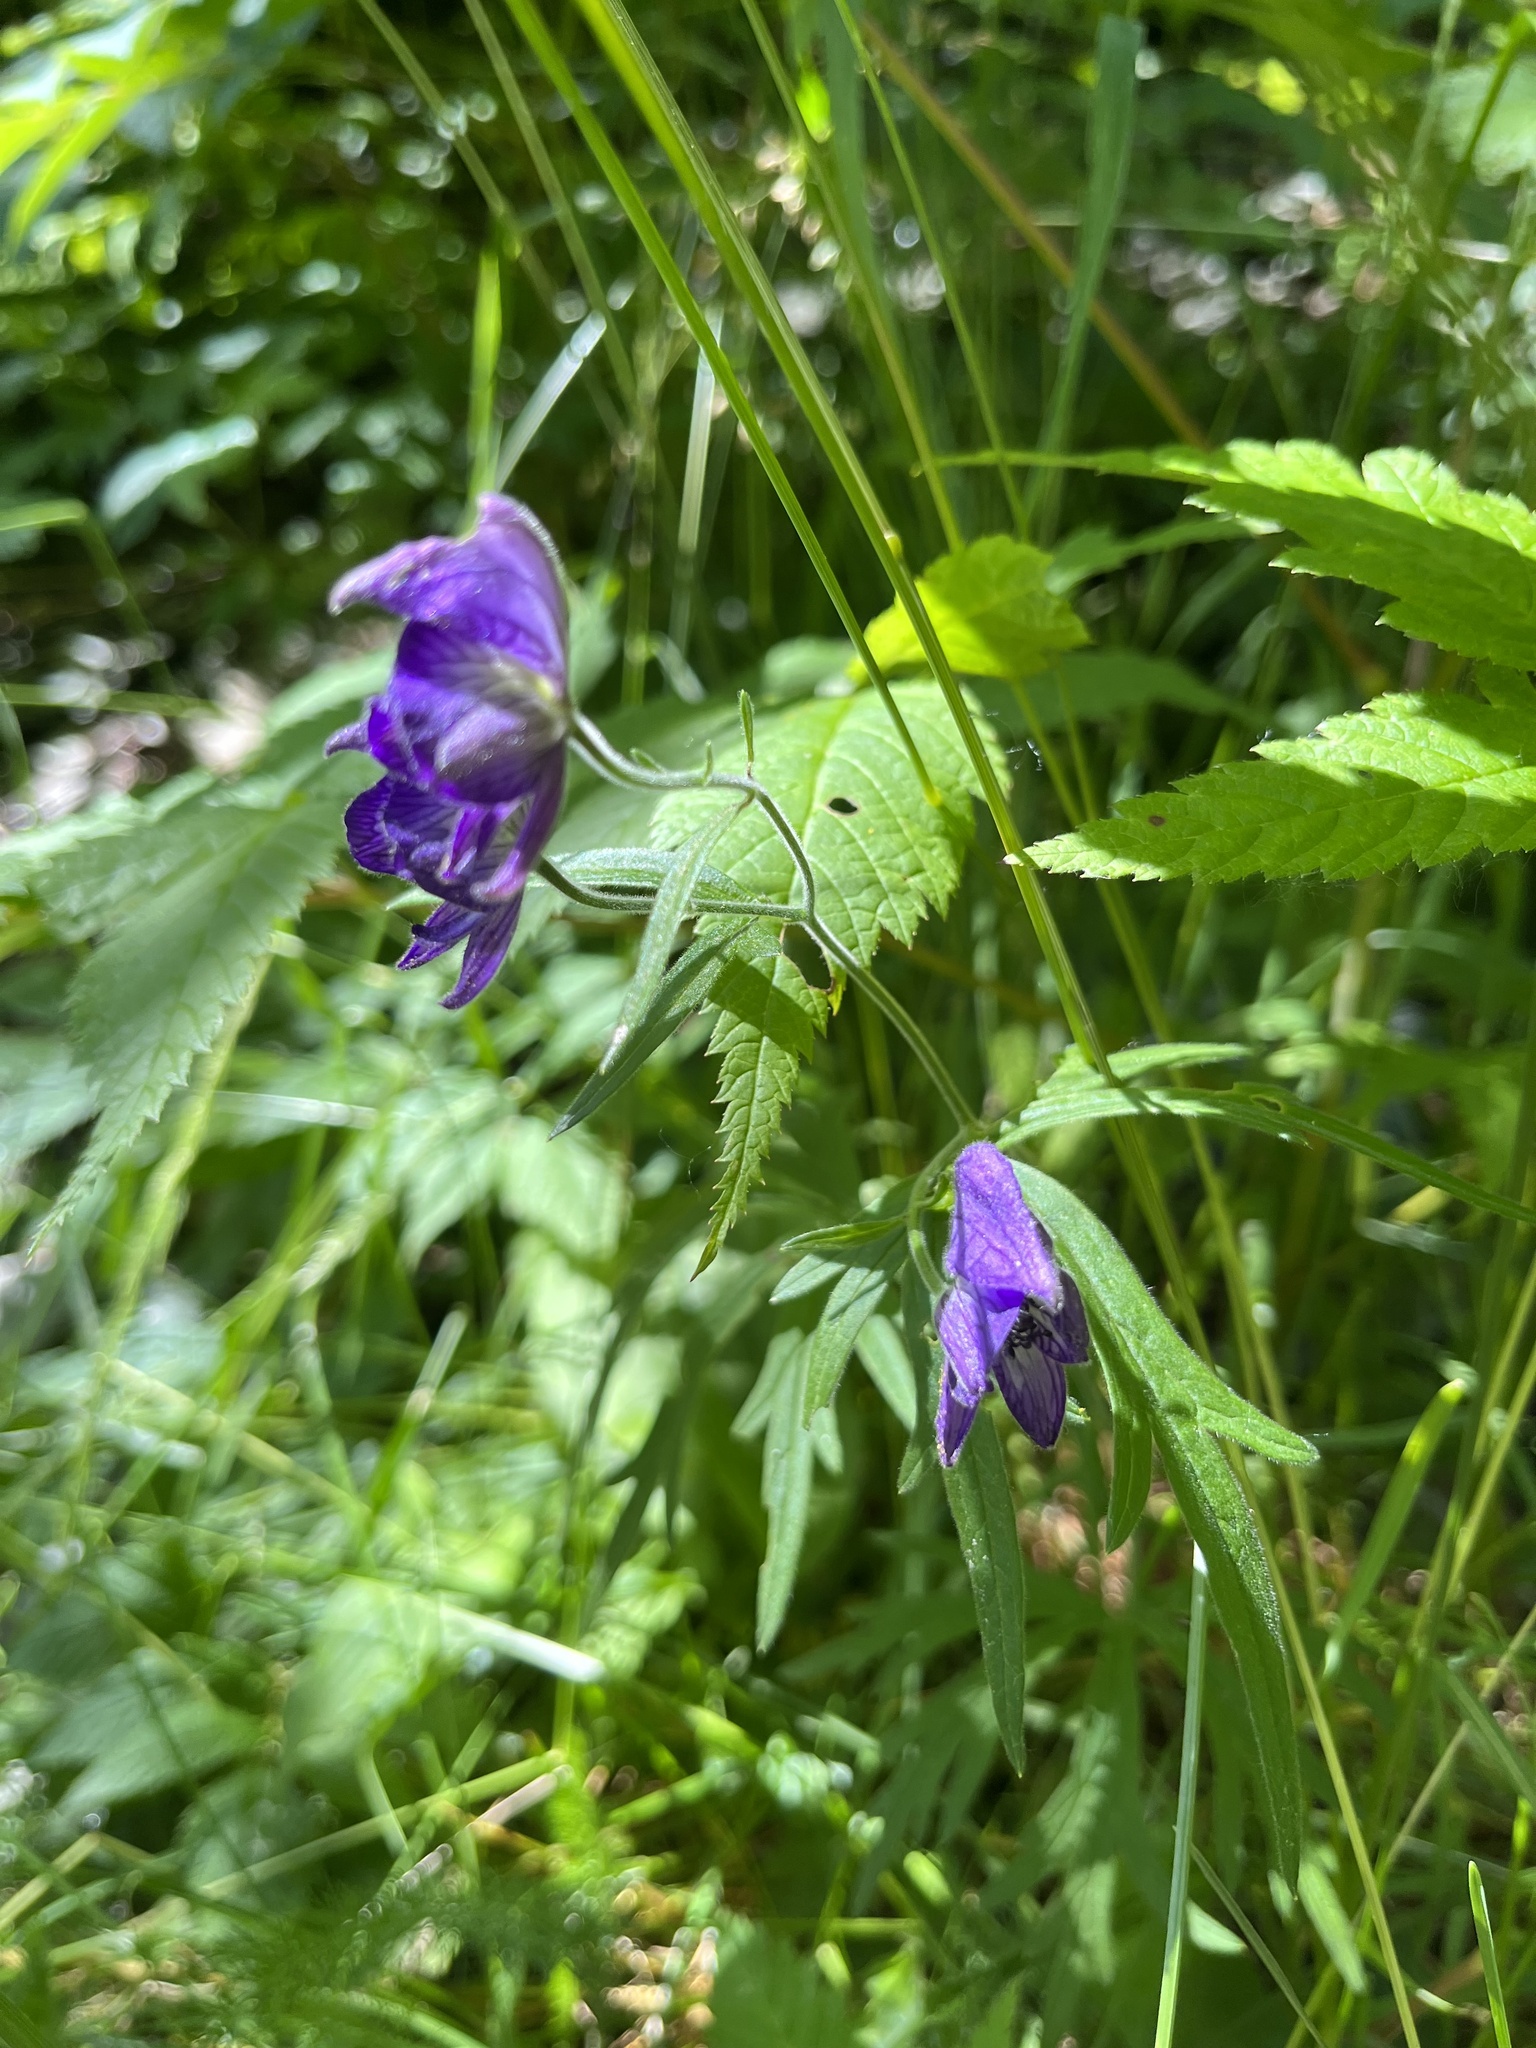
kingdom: Plantae
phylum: Tracheophyta
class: Magnoliopsida
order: Ranunculales
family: Ranunculaceae
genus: Aconitum
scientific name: Aconitum delphiniifolium
